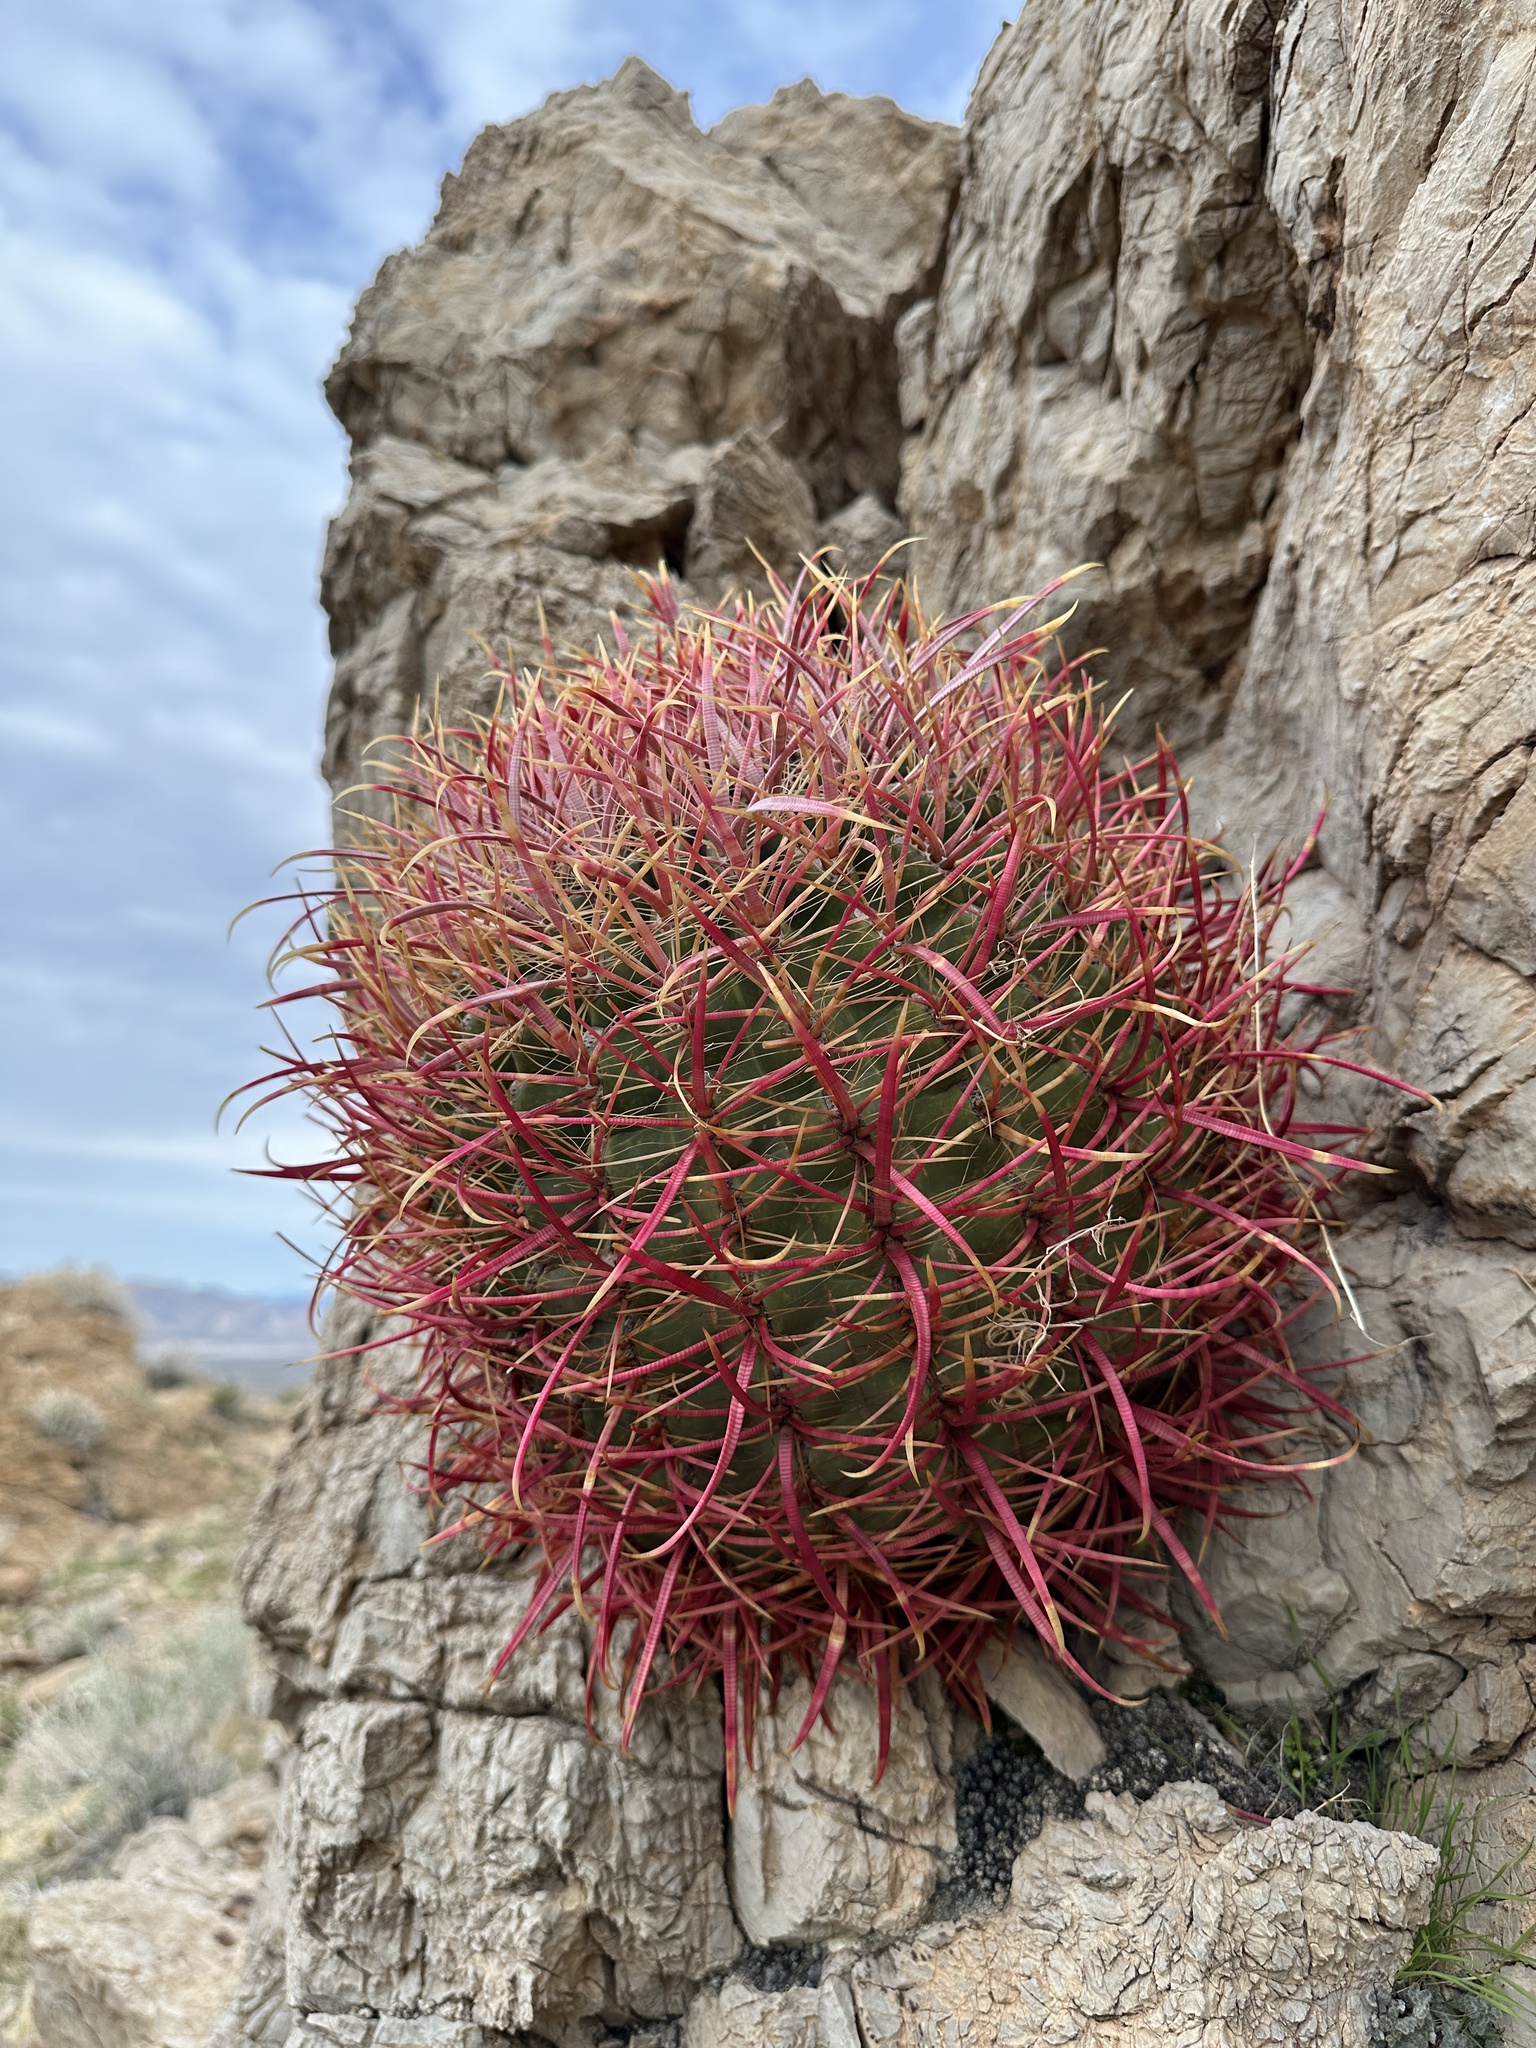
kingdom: Plantae
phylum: Tracheophyta
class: Magnoliopsida
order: Caryophyllales
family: Cactaceae
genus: Ferocactus
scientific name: Ferocactus cylindraceus
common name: California barrel cactus
